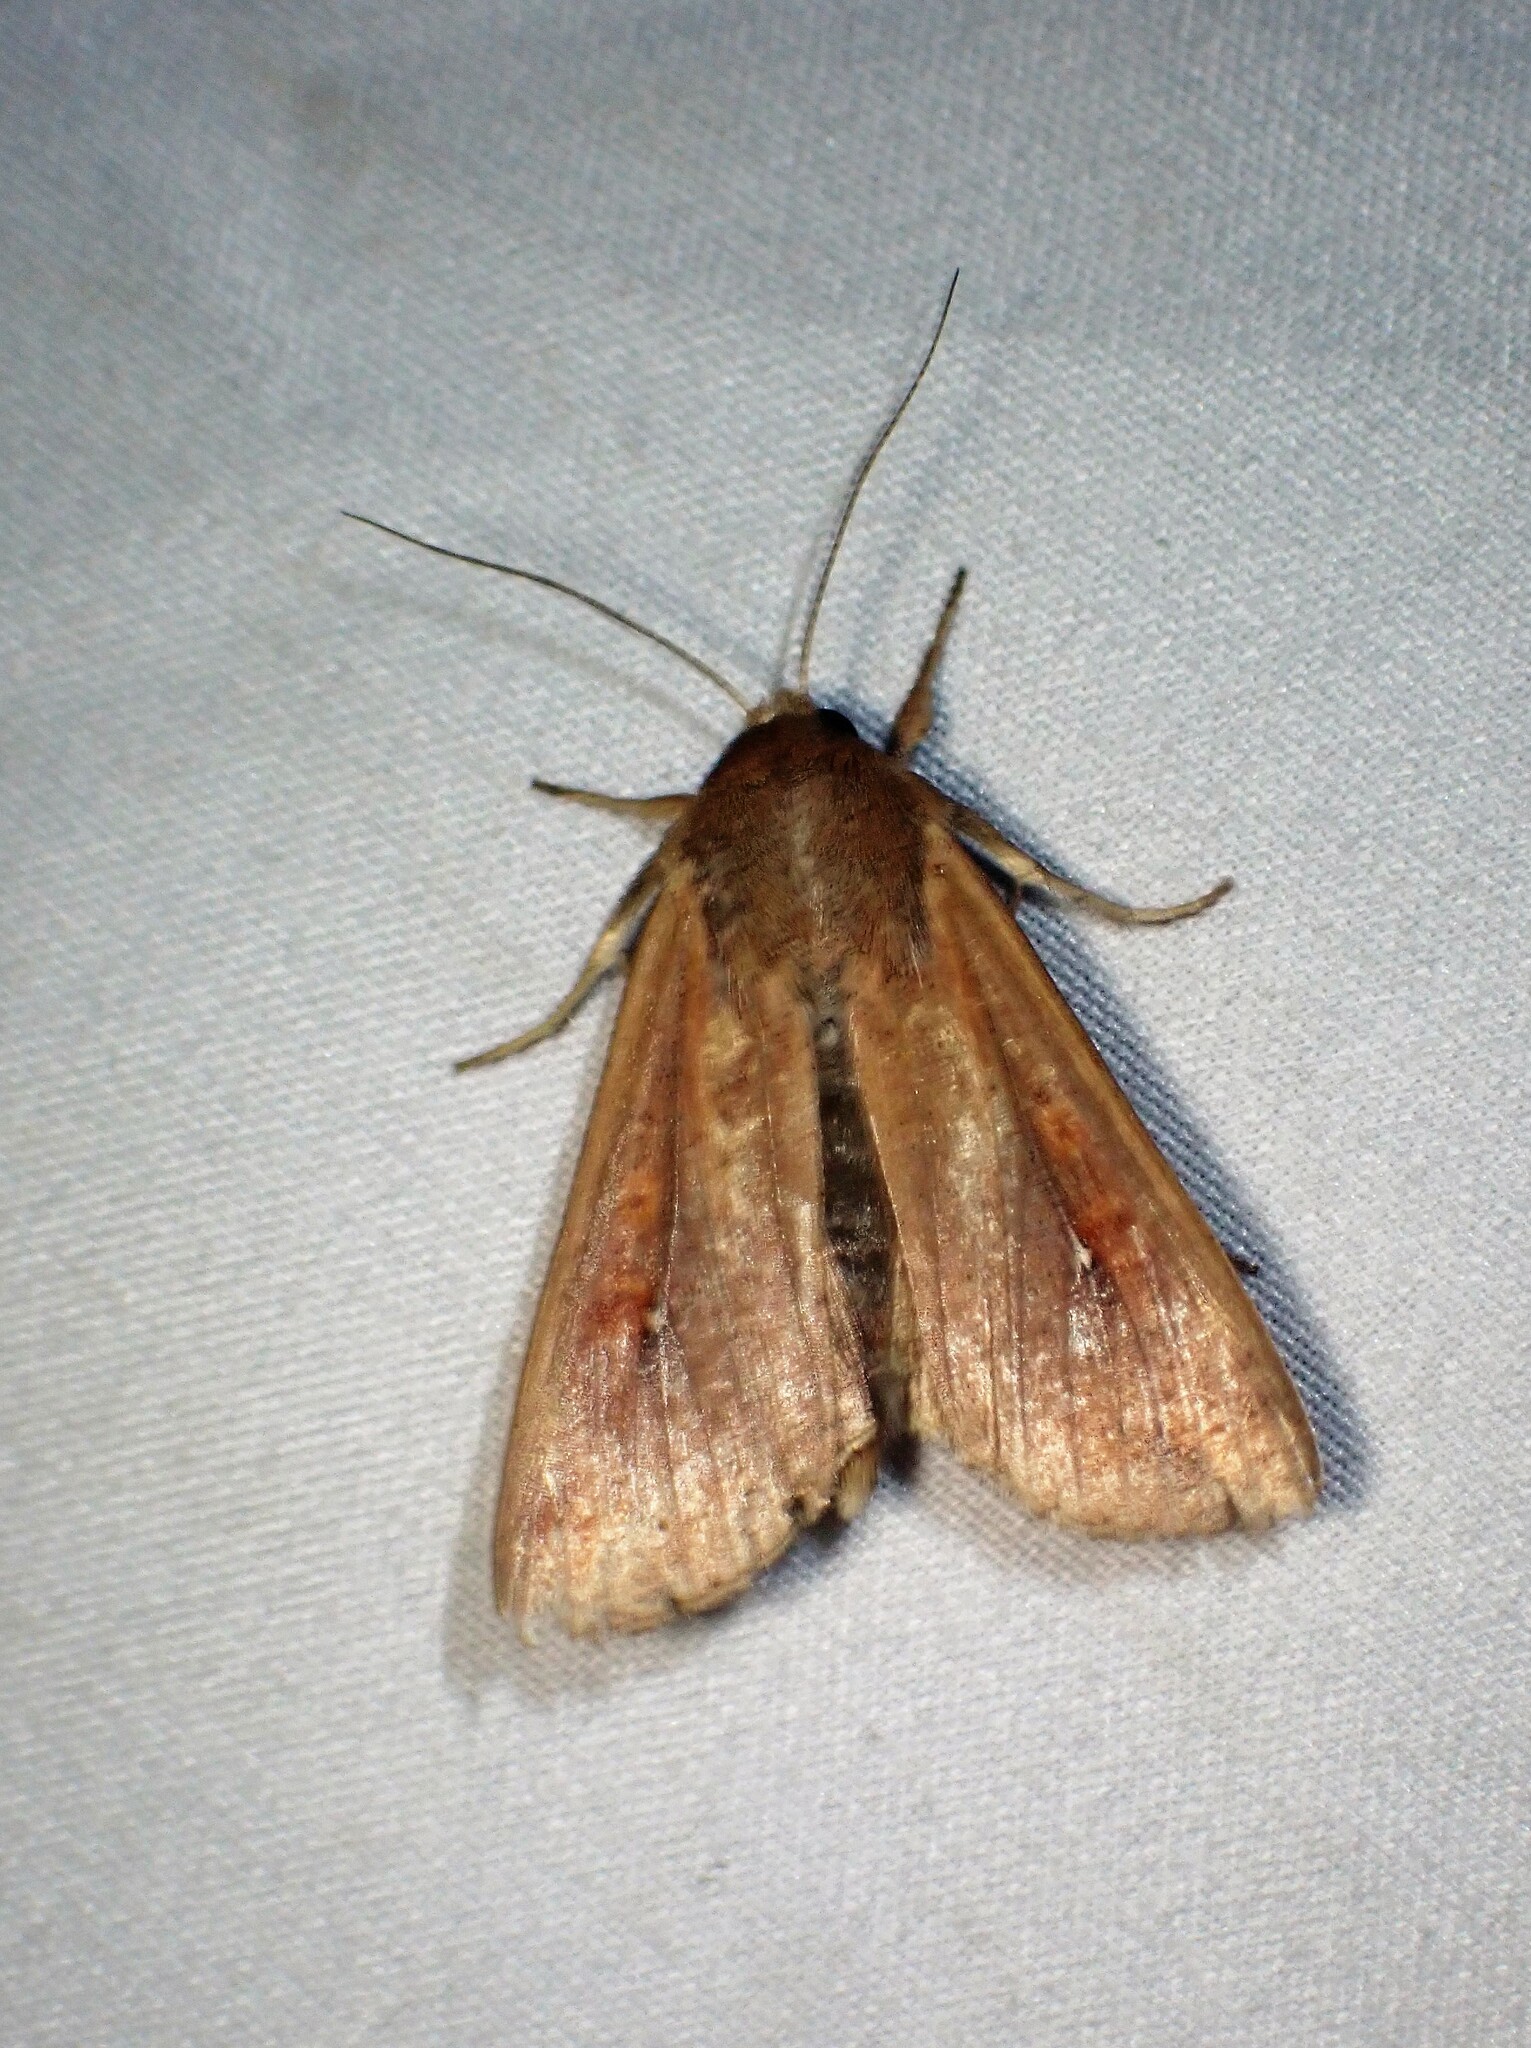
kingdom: Animalia
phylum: Arthropoda
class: Insecta
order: Lepidoptera
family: Noctuidae
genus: Mythimna
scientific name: Mythimna unipuncta
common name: White-speck
